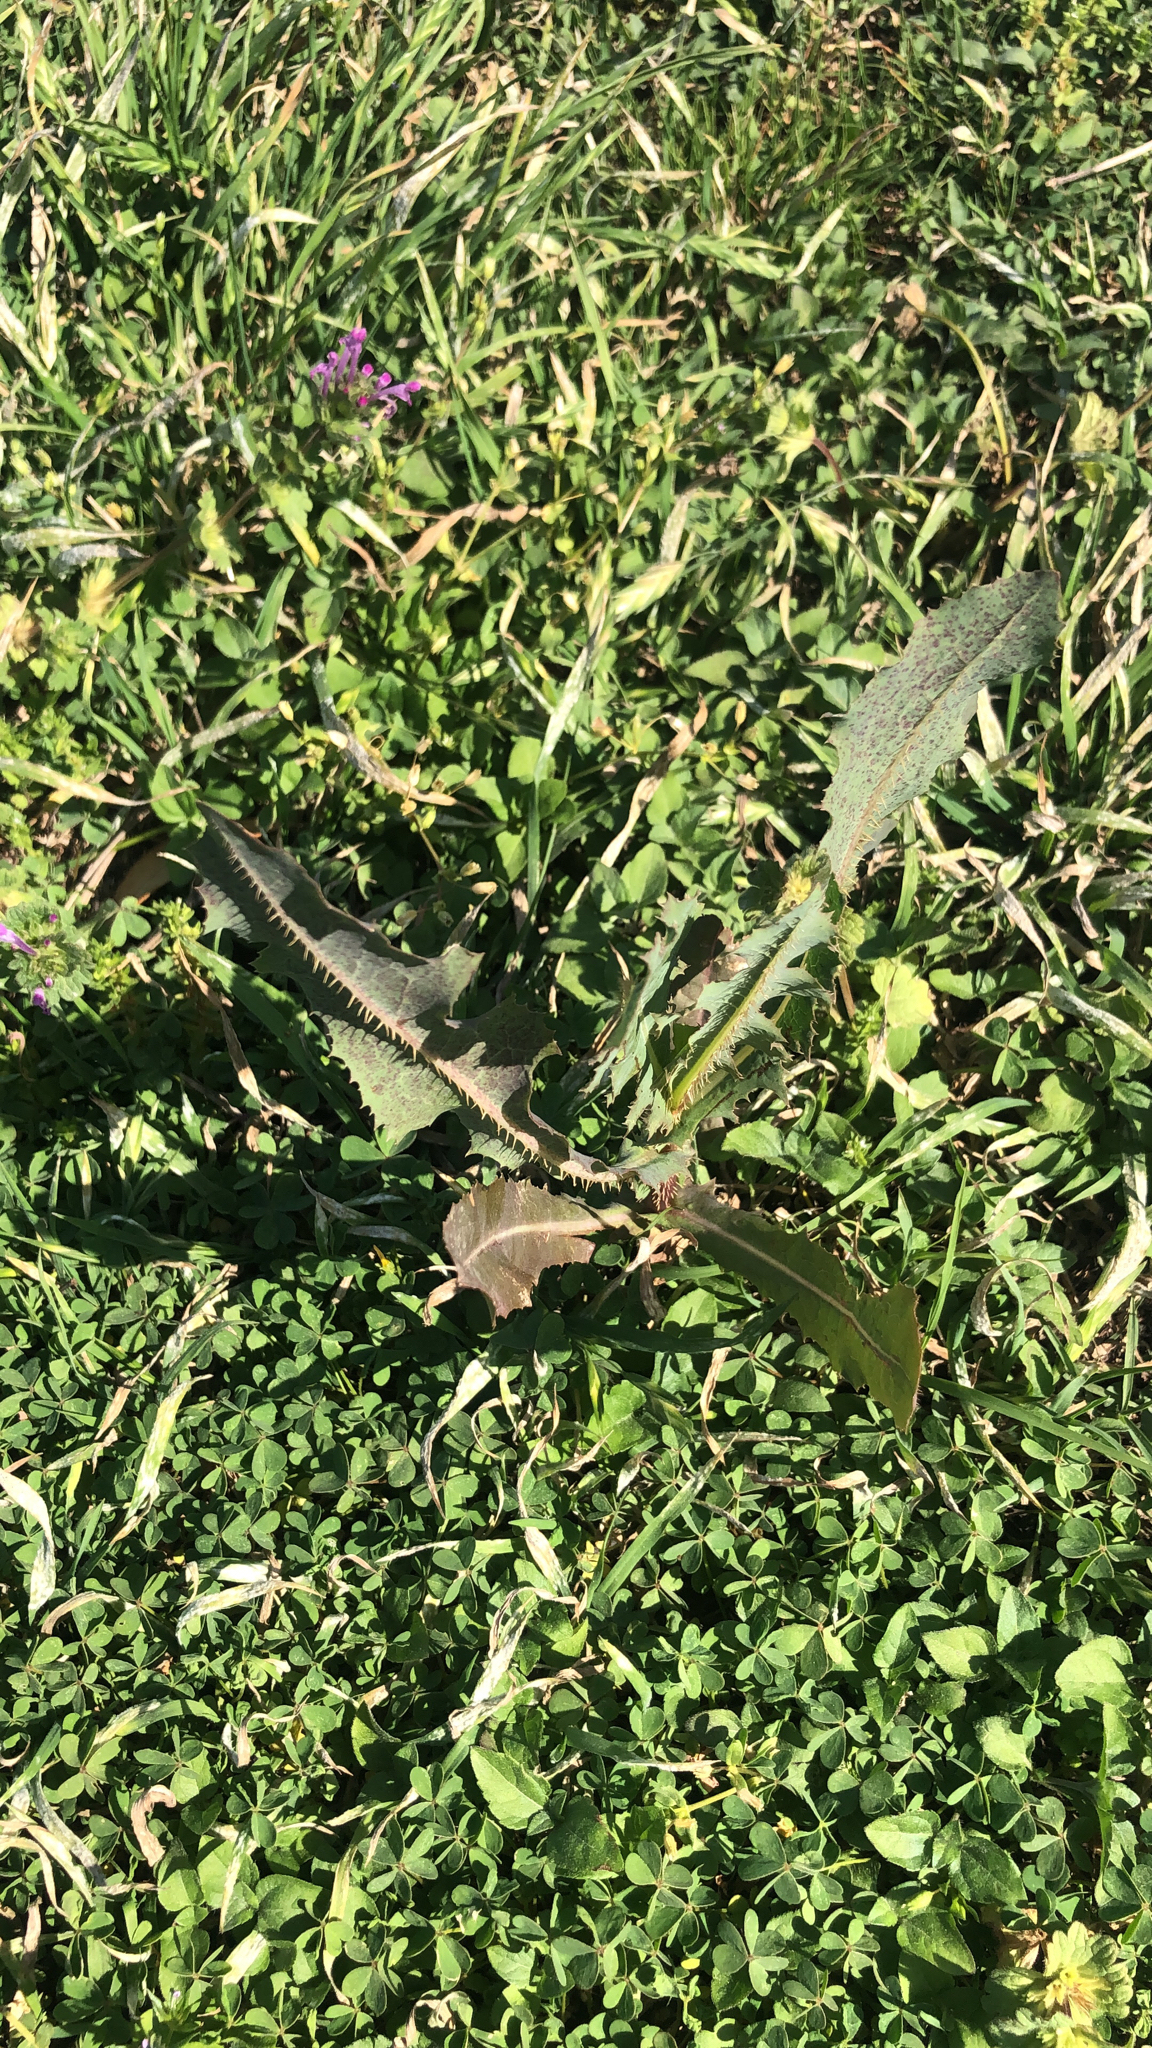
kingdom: Plantae
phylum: Tracheophyta
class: Magnoliopsida
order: Asterales
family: Asteraceae
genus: Lactuca
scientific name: Lactuca serriola
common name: Prickly lettuce
